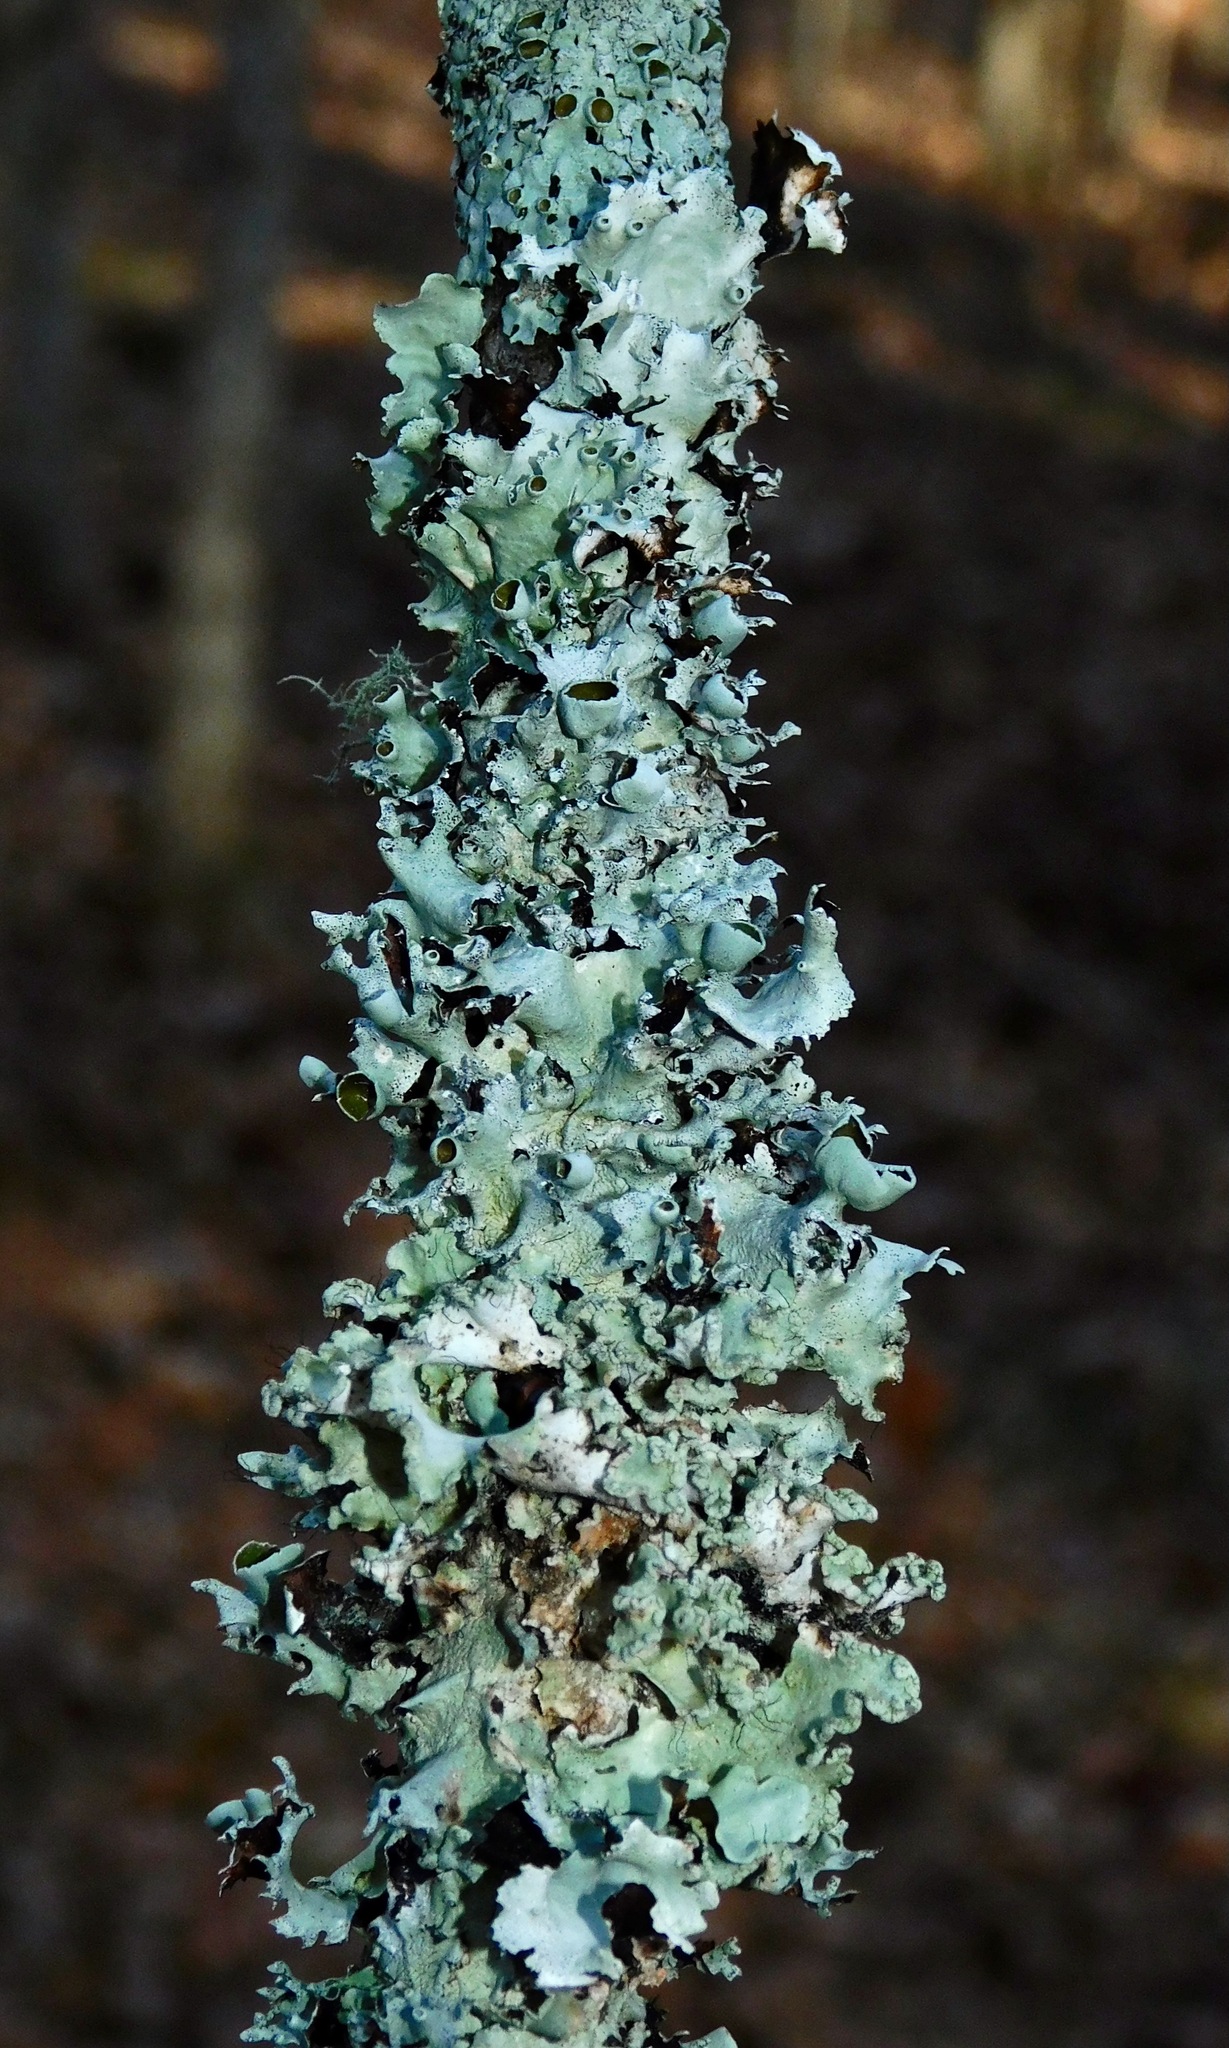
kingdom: Fungi
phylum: Ascomycota
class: Lecanoromycetes
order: Lecanorales
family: Parmeliaceae
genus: Parmotrema
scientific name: Parmotrema cetratum
